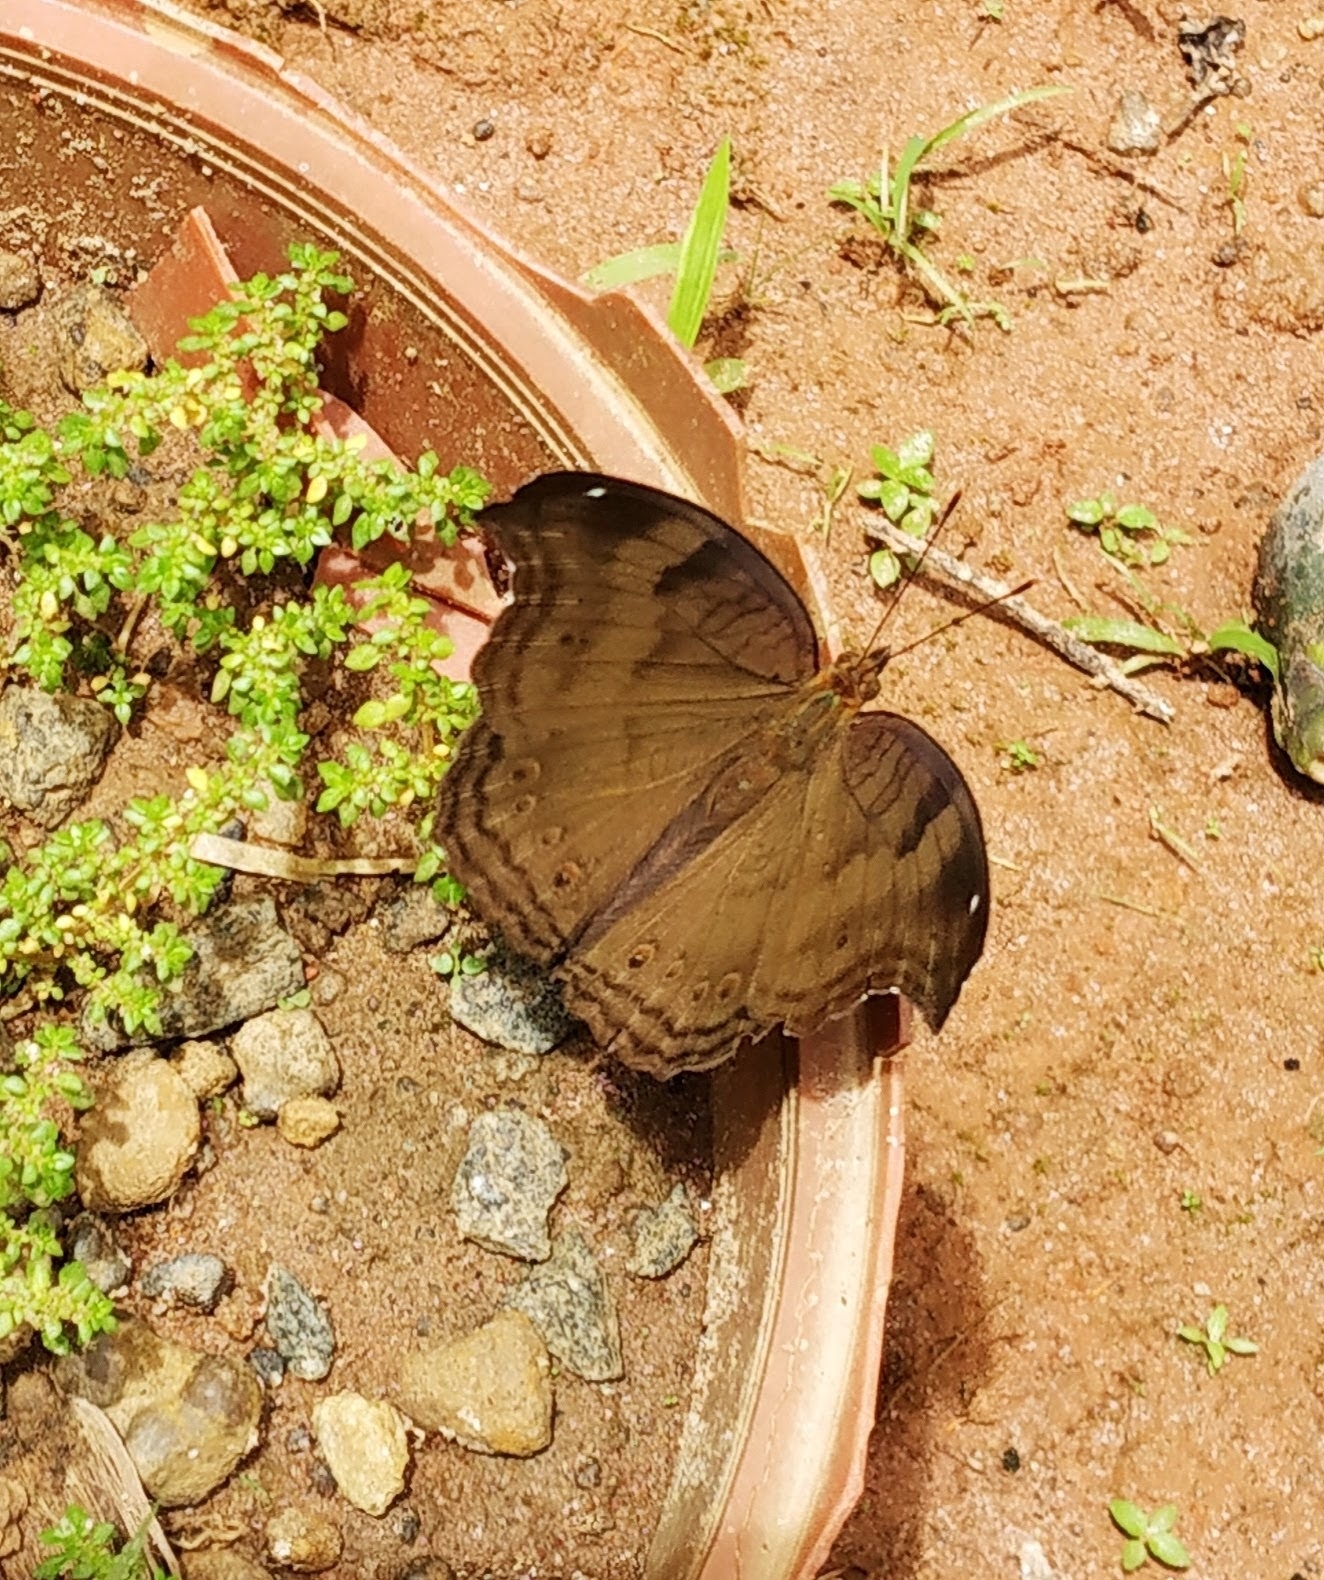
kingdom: Animalia
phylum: Arthropoda
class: Insecta
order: Lepidoptera
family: Nymphalidae
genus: Junonia
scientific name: Junonia iphita
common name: Chocolate pansy
